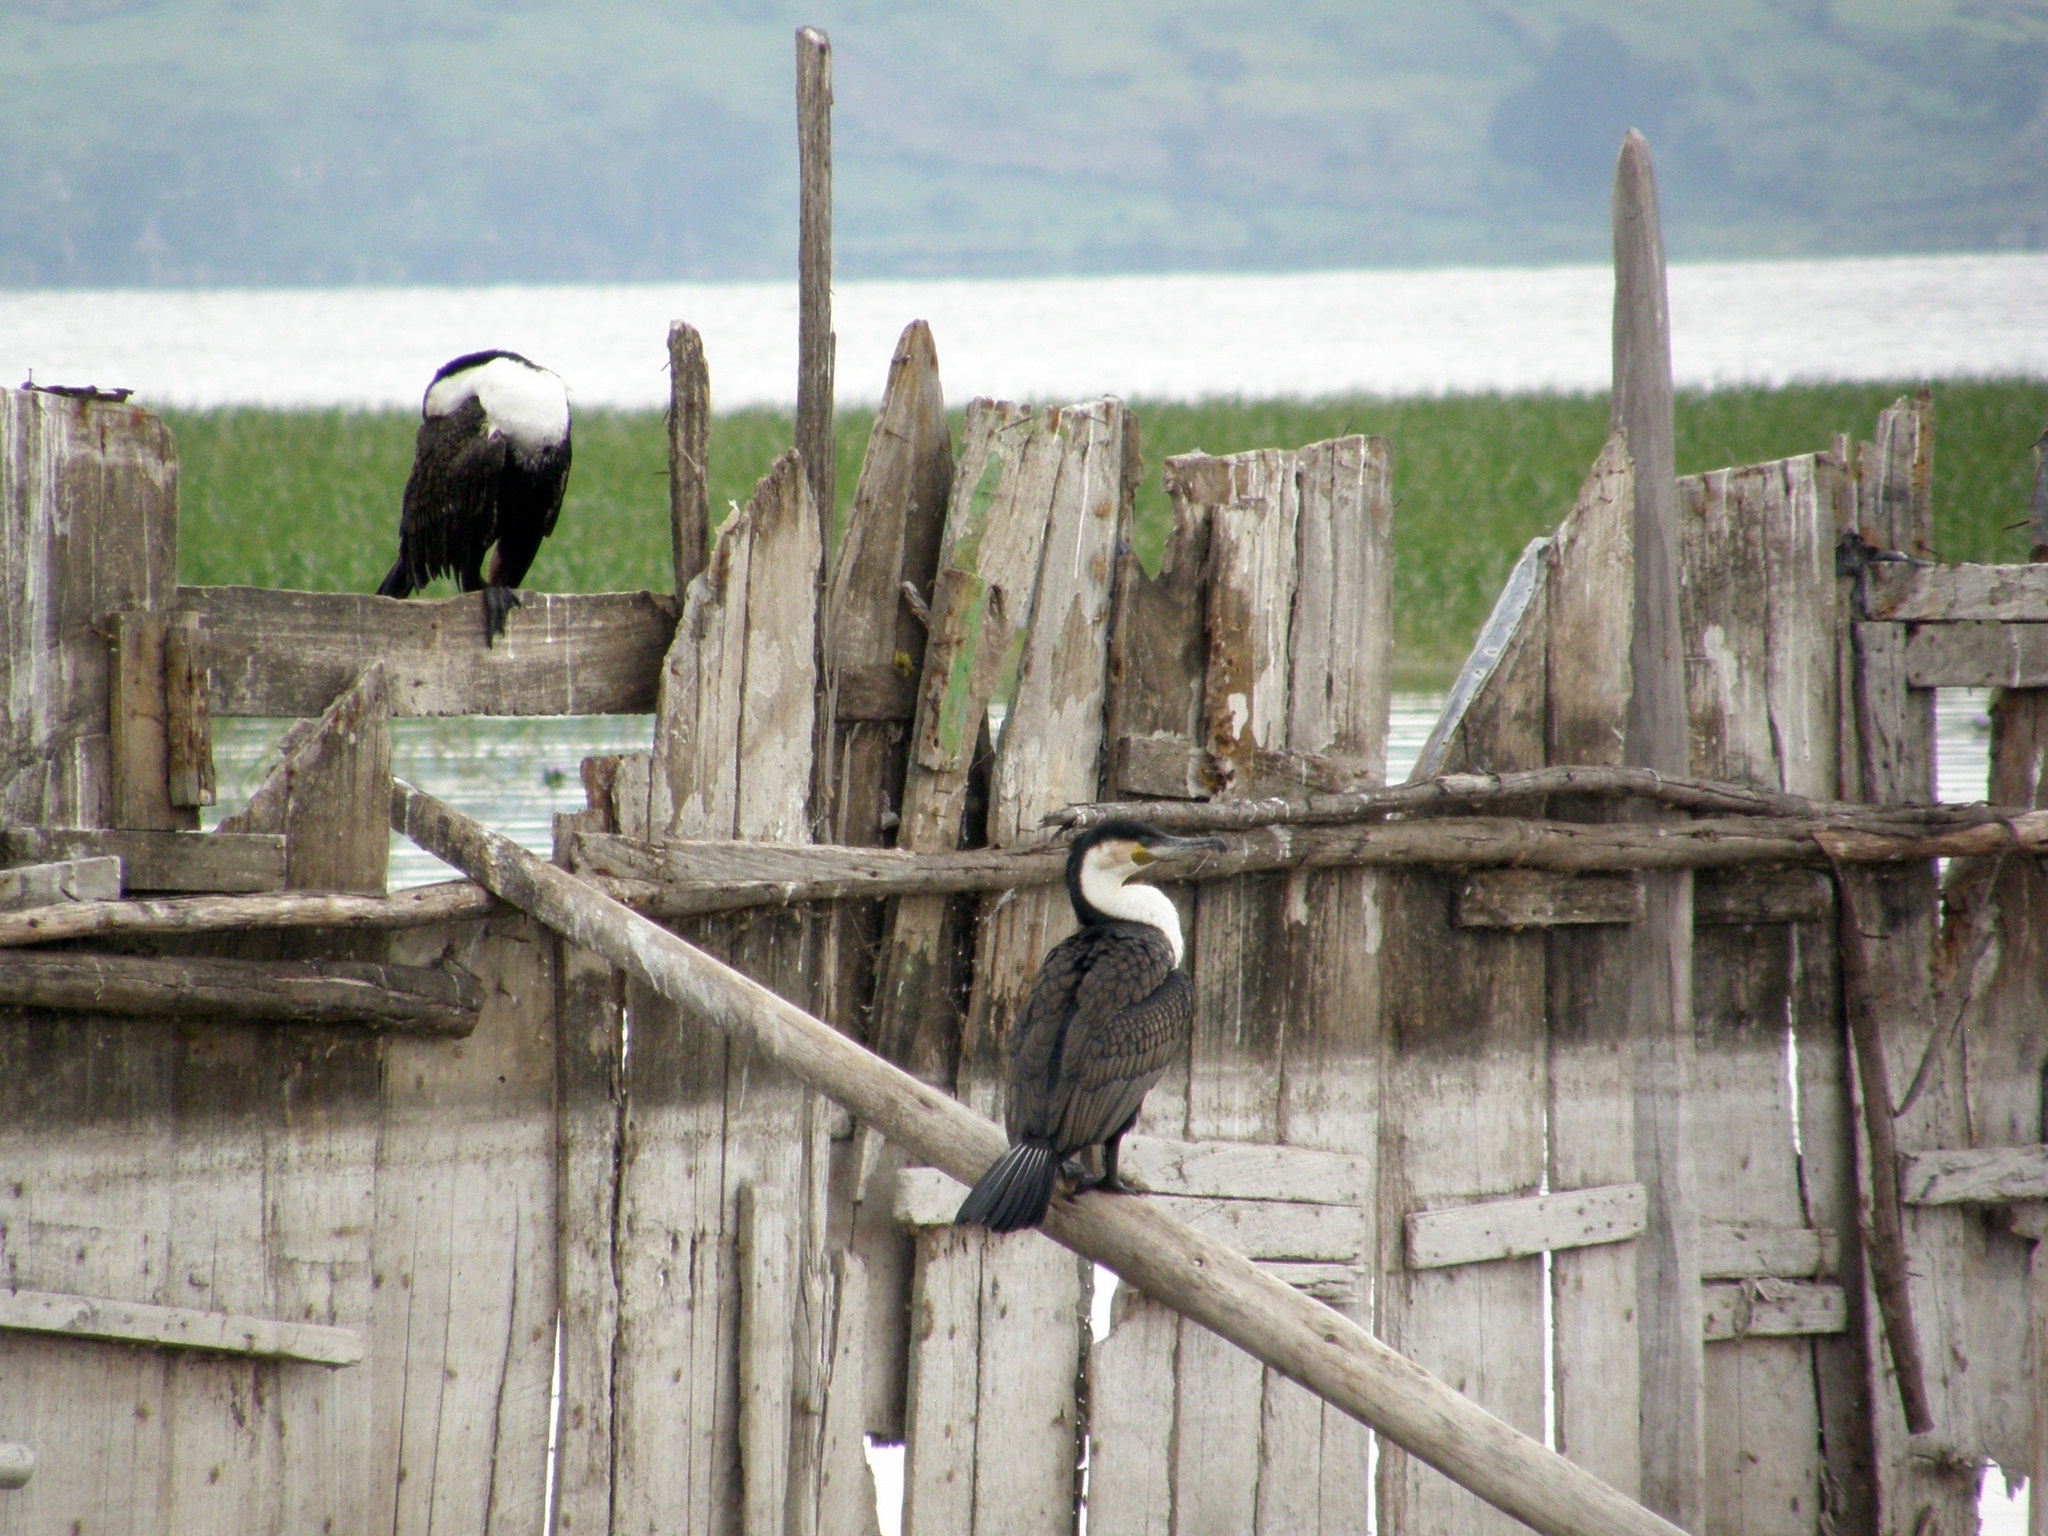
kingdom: Animalia
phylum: Chordata
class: Aves
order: Suliformes
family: Phalacrocoracidae
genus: Phalacrocorax
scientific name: Phalacrocorax carbo
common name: Great cormorant
